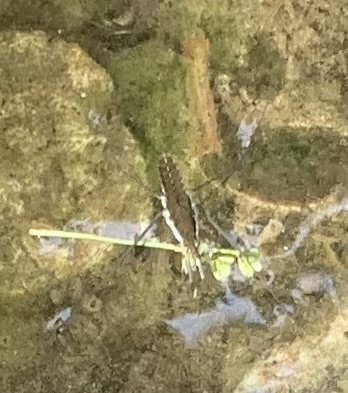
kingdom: Animalia
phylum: Arthropoda
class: Insecta
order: Hemiptera
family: Gerridae
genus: Aquarius
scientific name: Aquarius remigis
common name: Common water strider
